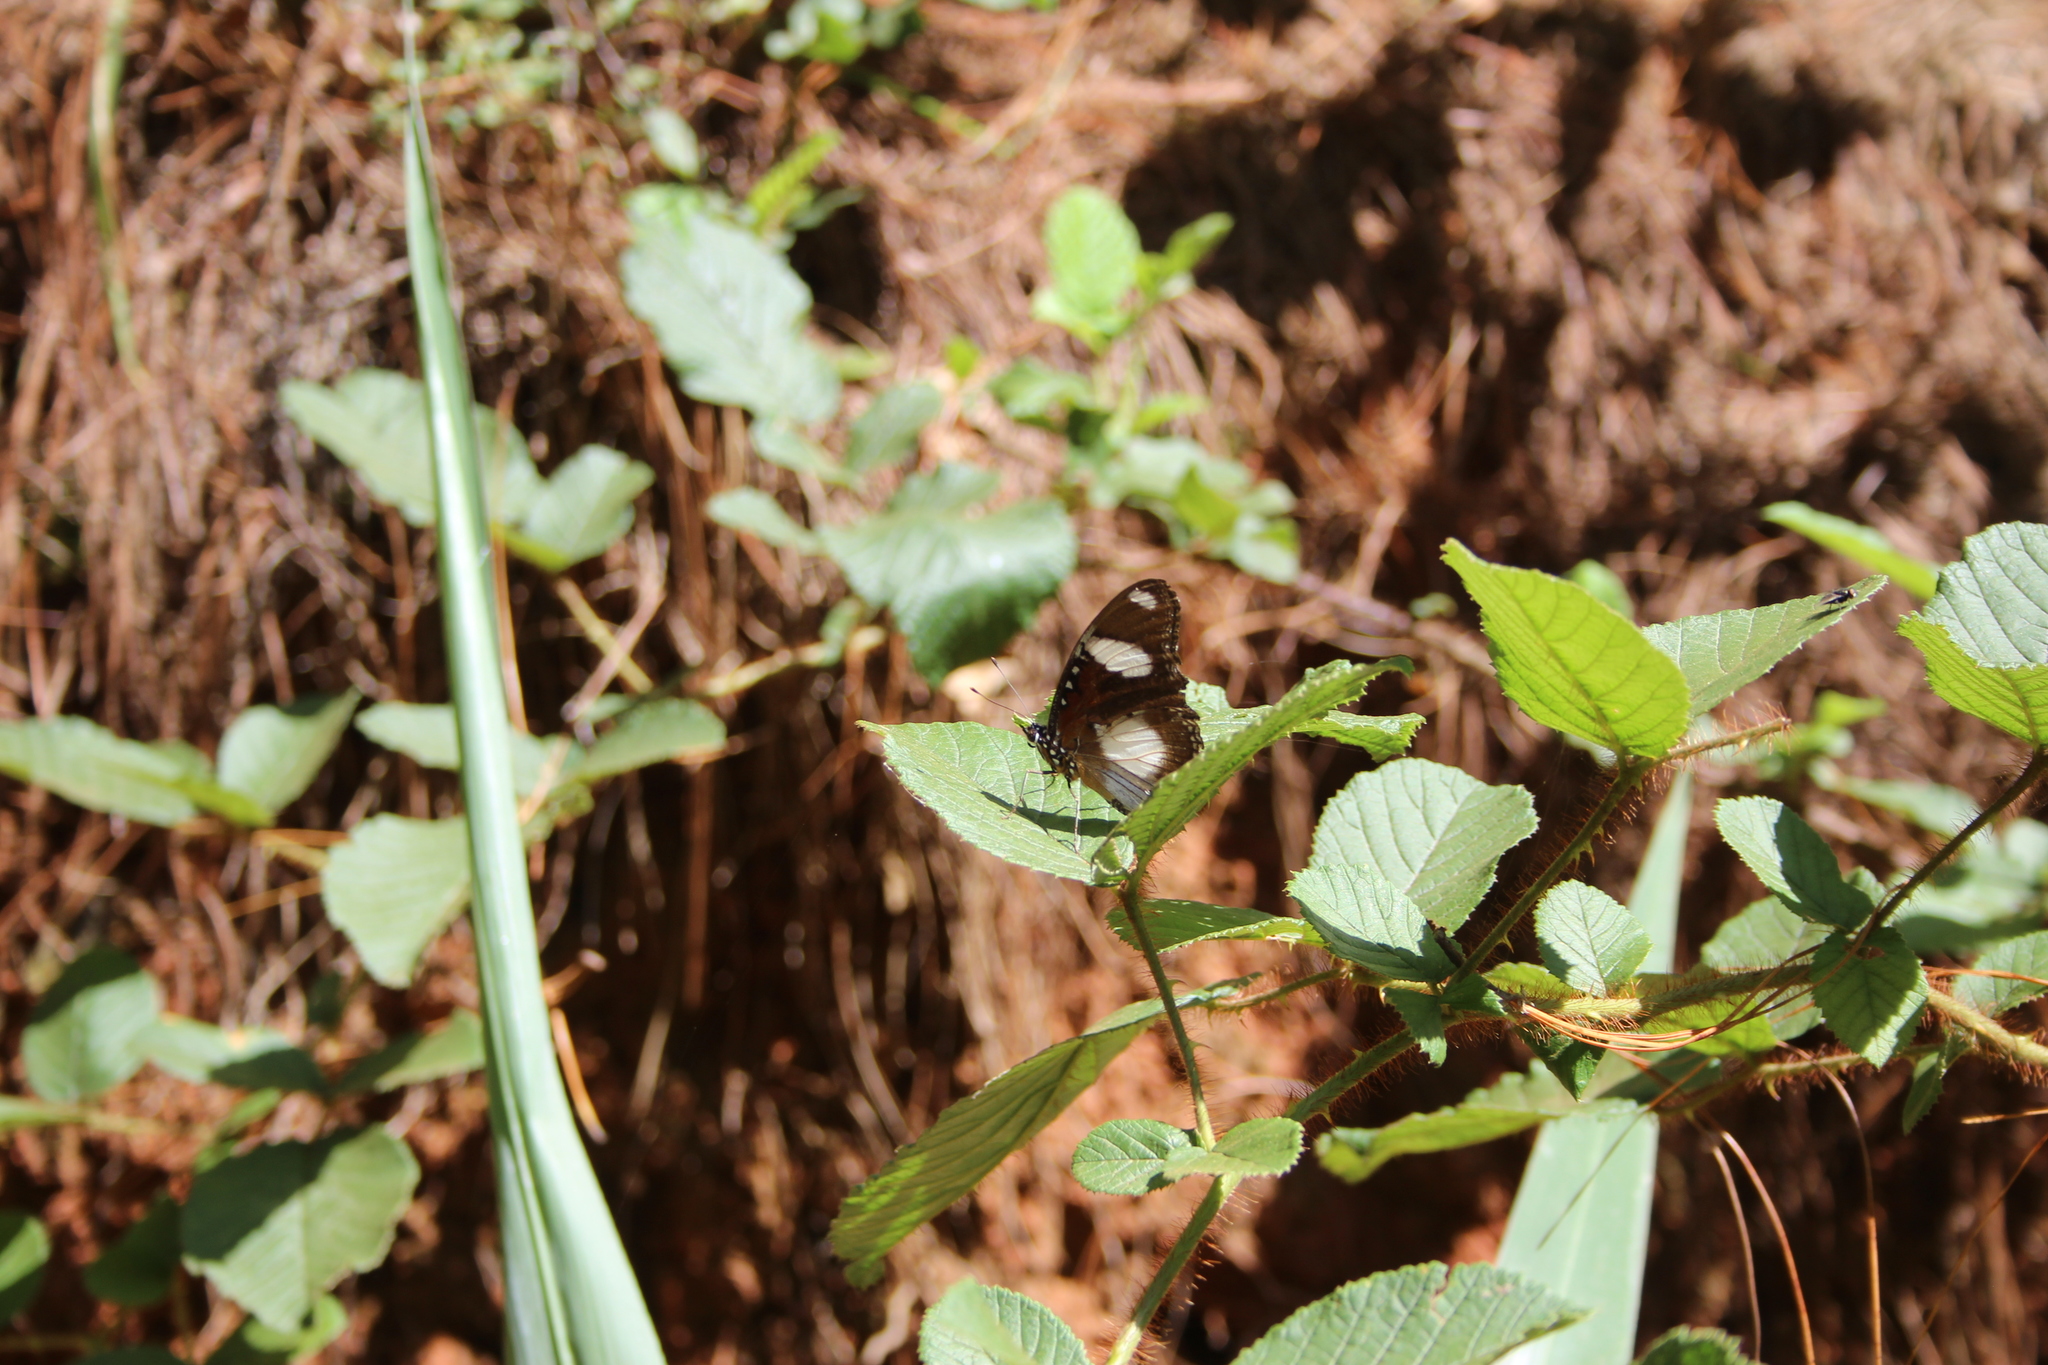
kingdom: Animalia
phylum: Arthropoda
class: Insecta
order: Lepidoptera
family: Nymphalidae
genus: Hypolimnas
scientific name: Hypolimnas misippus
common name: False plain tiger
